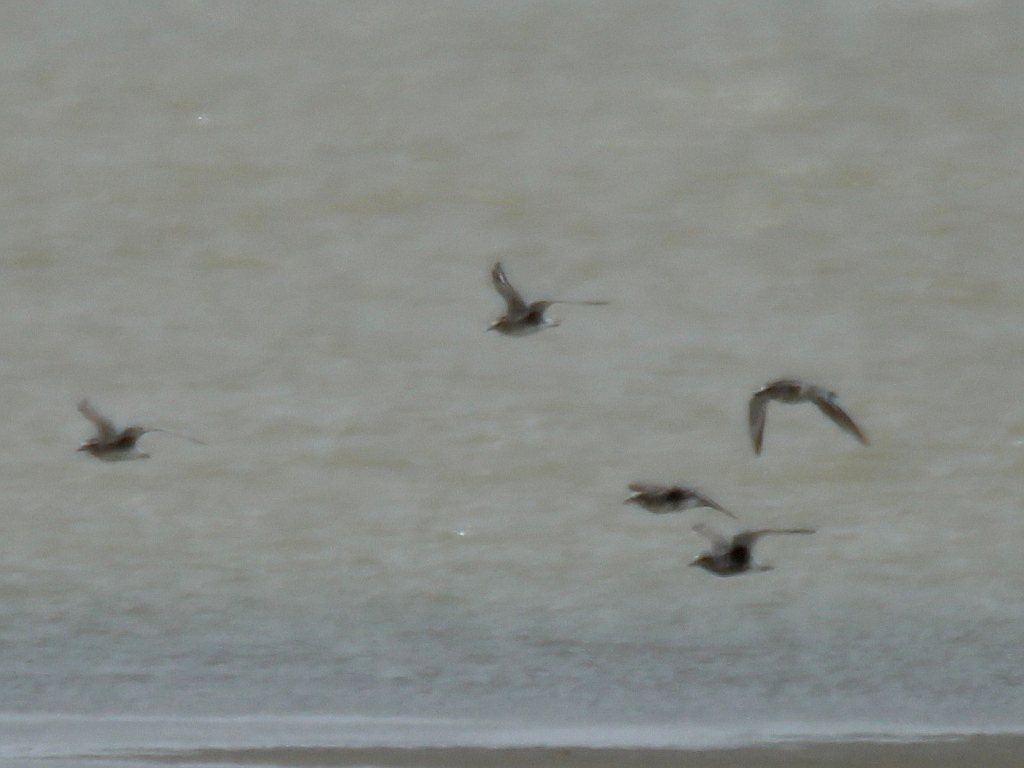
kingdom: Animalia
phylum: Chordata
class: Aves
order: Charadriiformes
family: Charadriidae
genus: Pluvialis
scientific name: Pluvialis squatarola
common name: Grey plover
